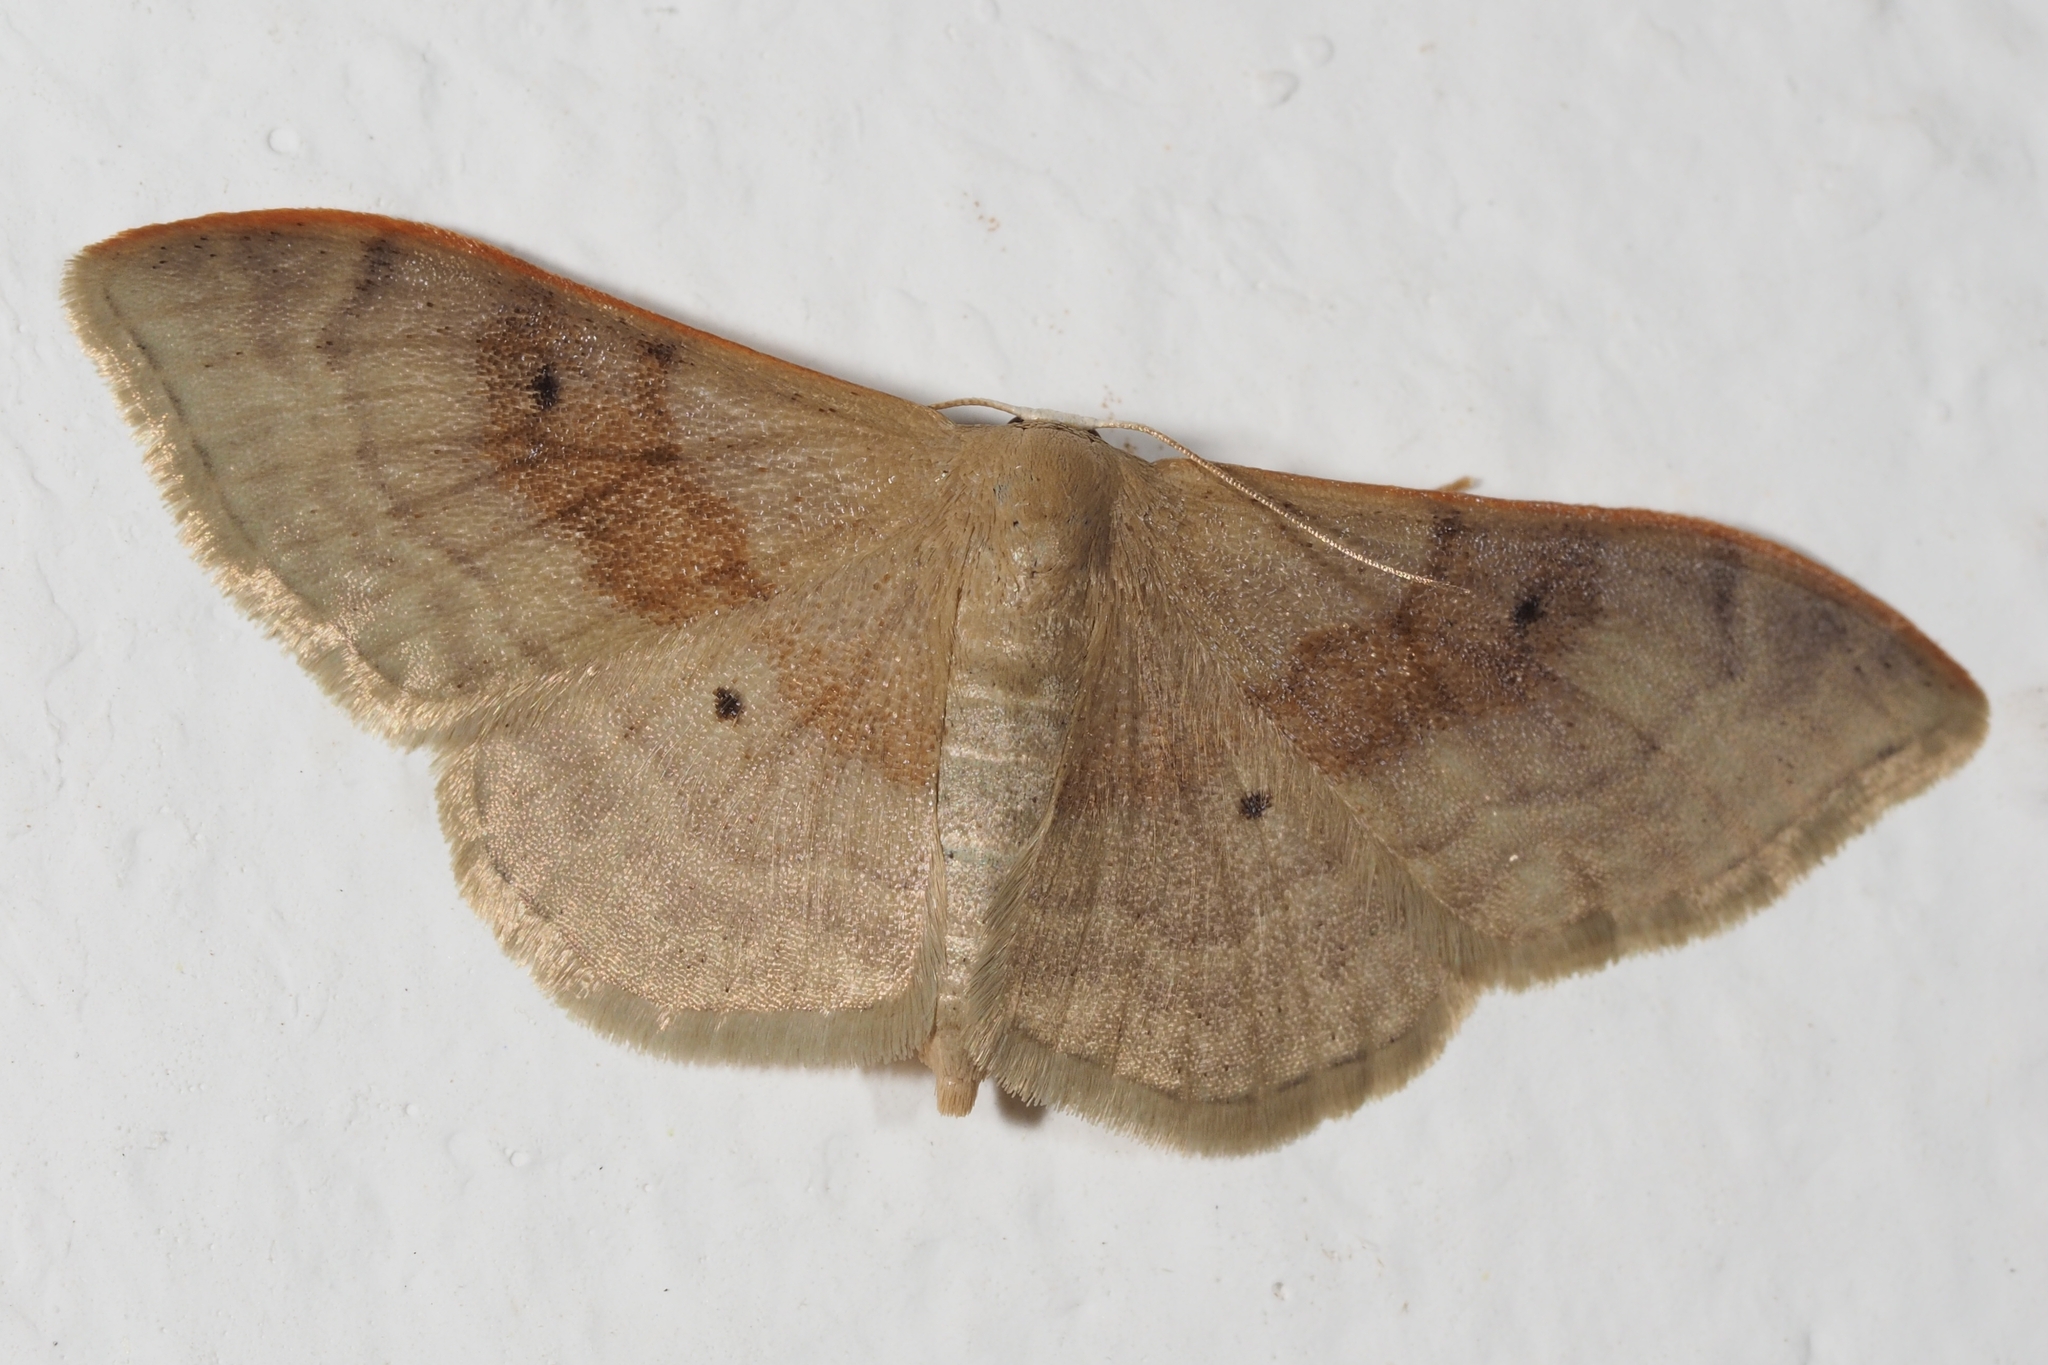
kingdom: Animalia
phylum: Arthropoda
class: Insecta
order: Lepidoptera
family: Geometridae
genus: Idaea
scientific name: Idaea degeneraria
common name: Portland ribbon wave
